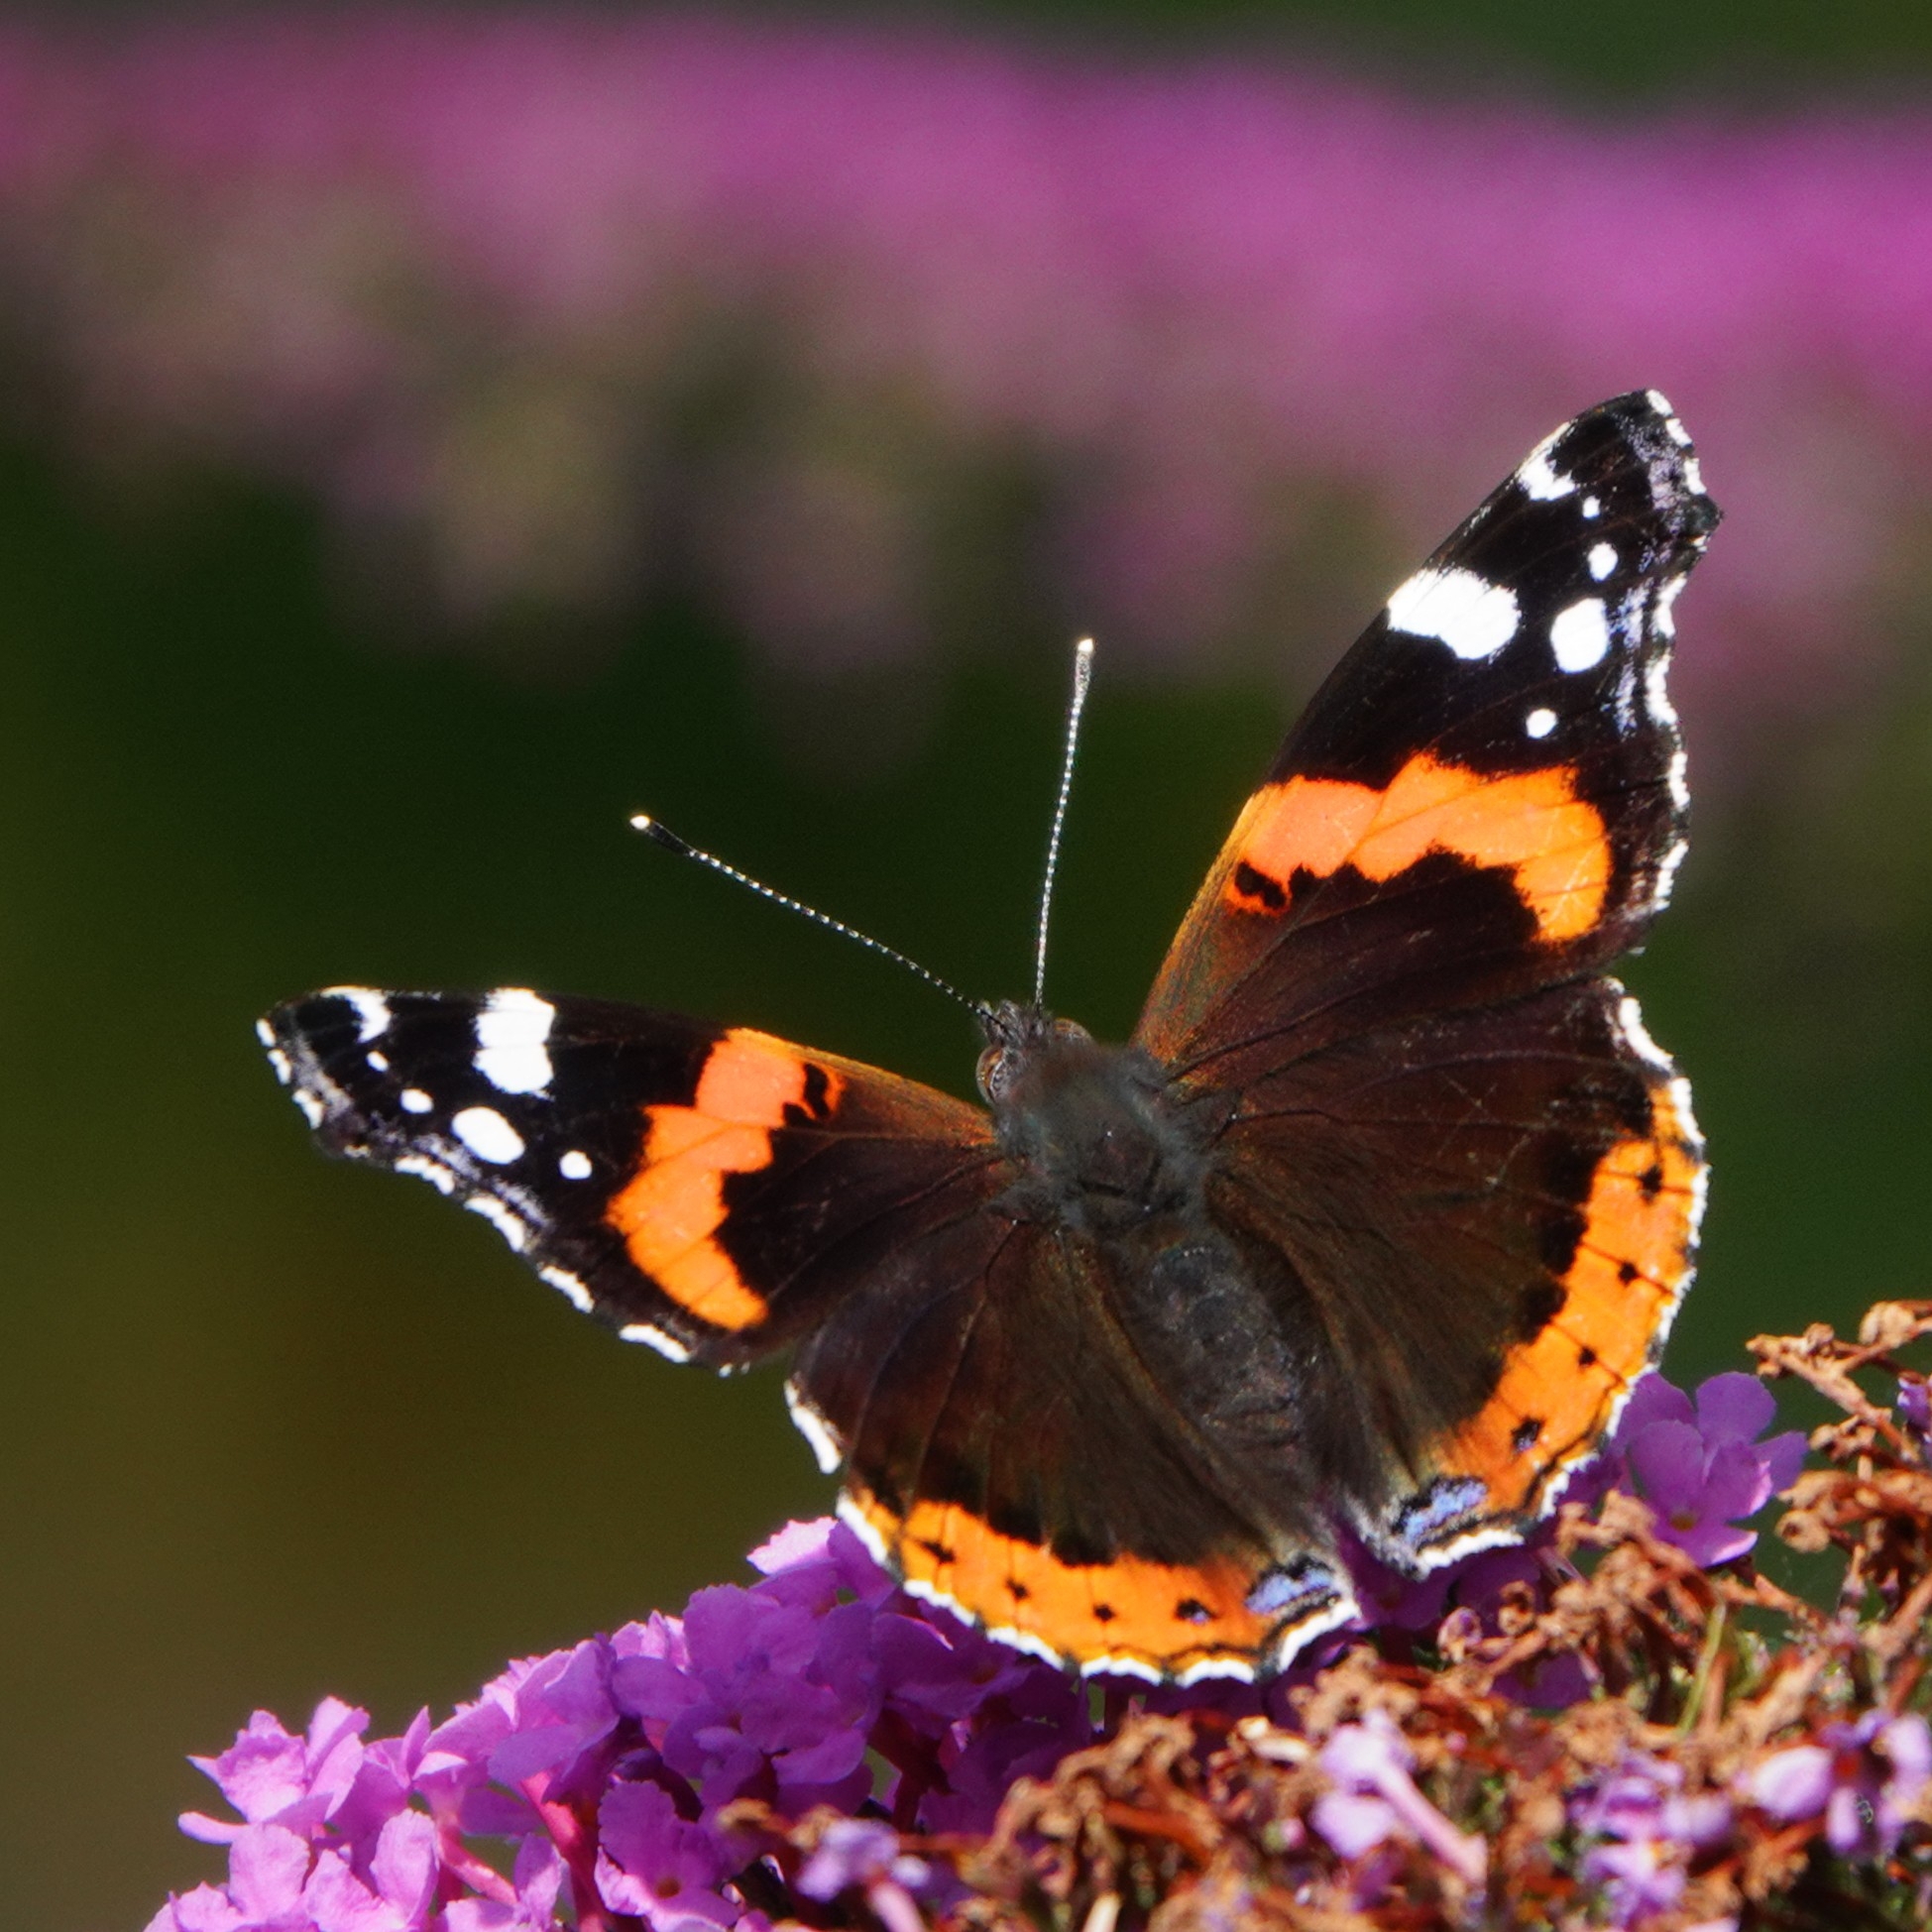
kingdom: Animalia
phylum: Arthropoda
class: Insecta
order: Lepidoptera
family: Nymphalidae
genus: Vanessa
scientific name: Vanessa atalanta
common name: Red admiral
